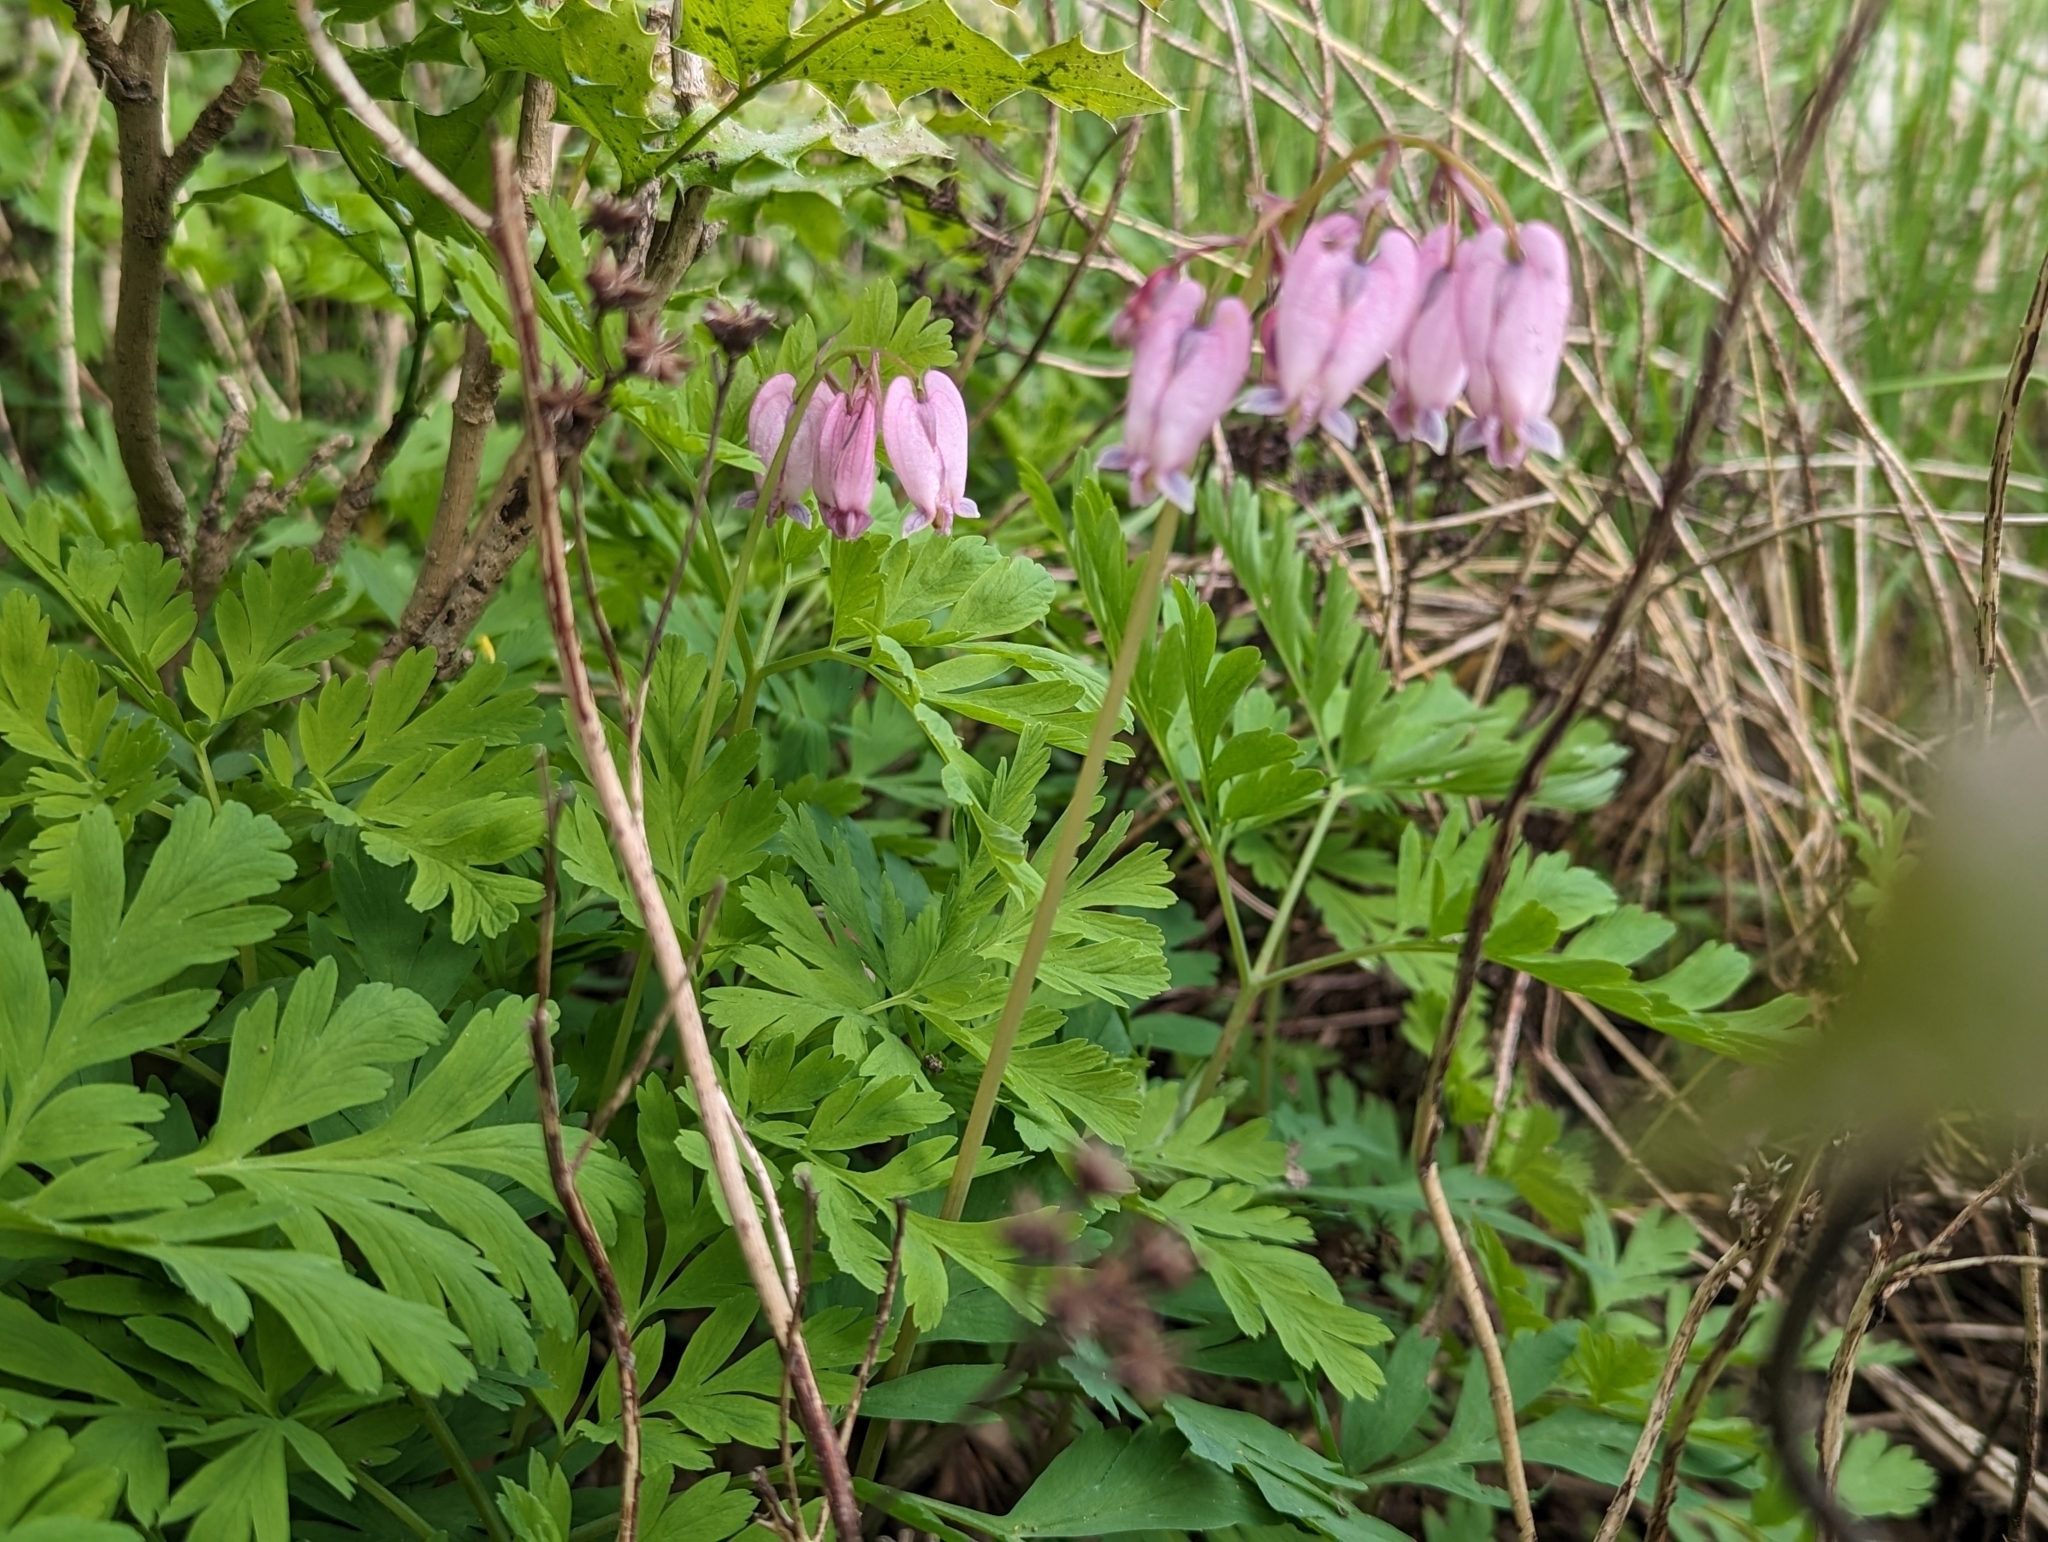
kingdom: Plantae
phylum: Tracheophyta
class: Magnoliopsida
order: Ranunculales
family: Papaveraceae
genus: Dicentra
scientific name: Dicentra formosa
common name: Bleeding-heart
